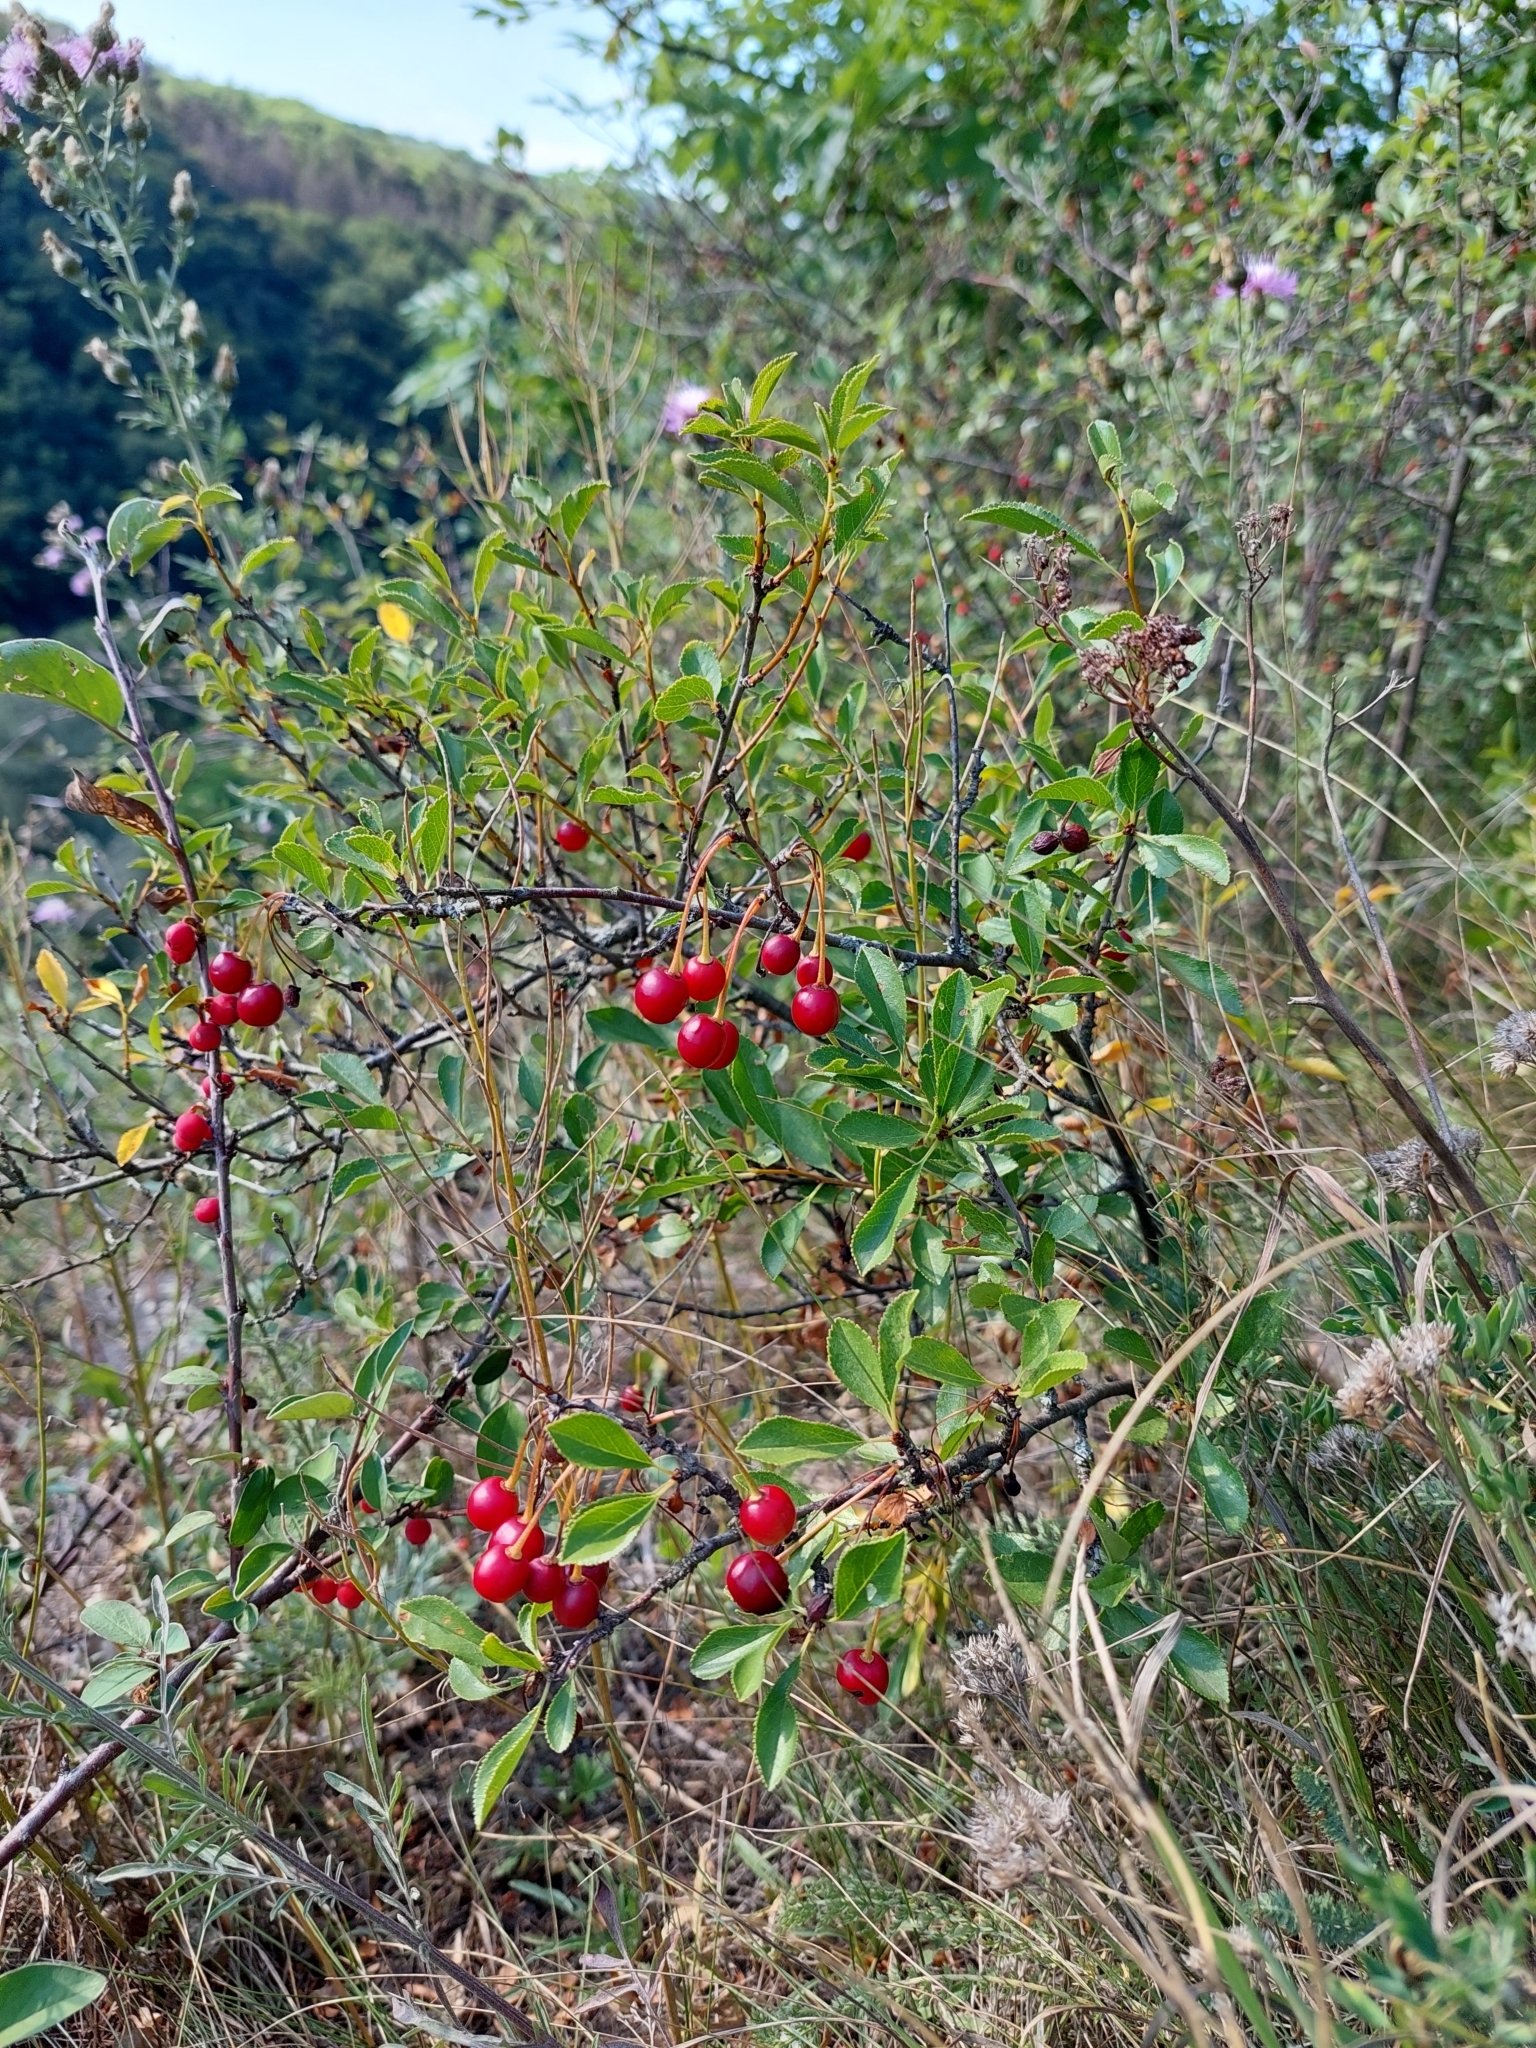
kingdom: Plantae
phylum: Tracheophyta
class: Magnoliopsida
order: Rosales
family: Rosaceae
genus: Prunus
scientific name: Prunus fruticosa
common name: European dwarf cherry
